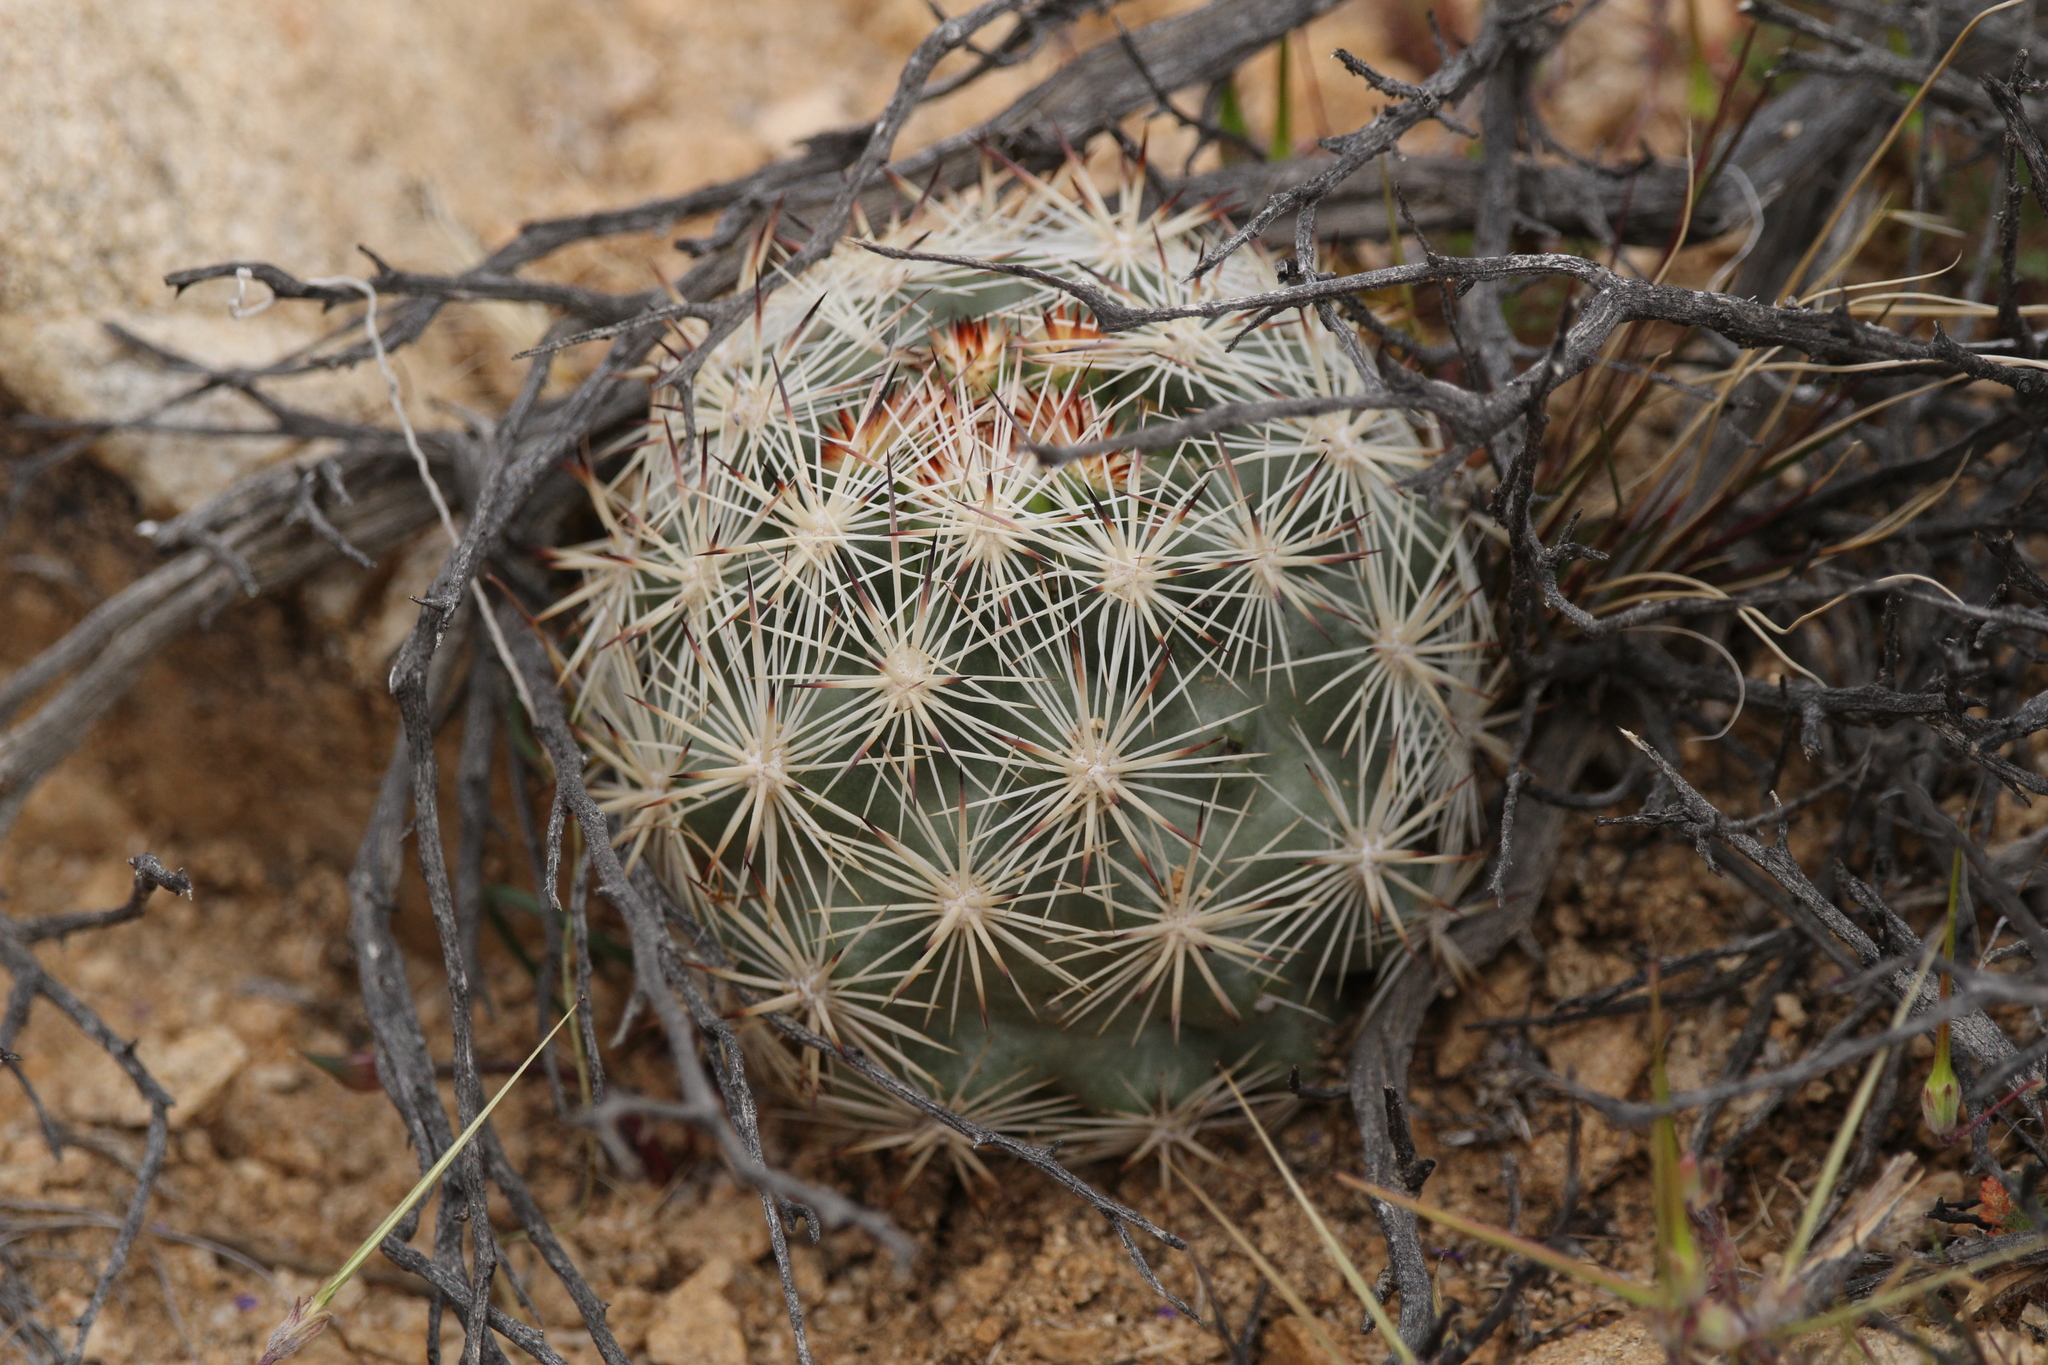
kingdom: Plantae
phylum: Tracheophyta
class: Magnoliopsida
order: Caryophyllales
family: Cactaceae
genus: Pelecyphora
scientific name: Pelecyphora alversonii
